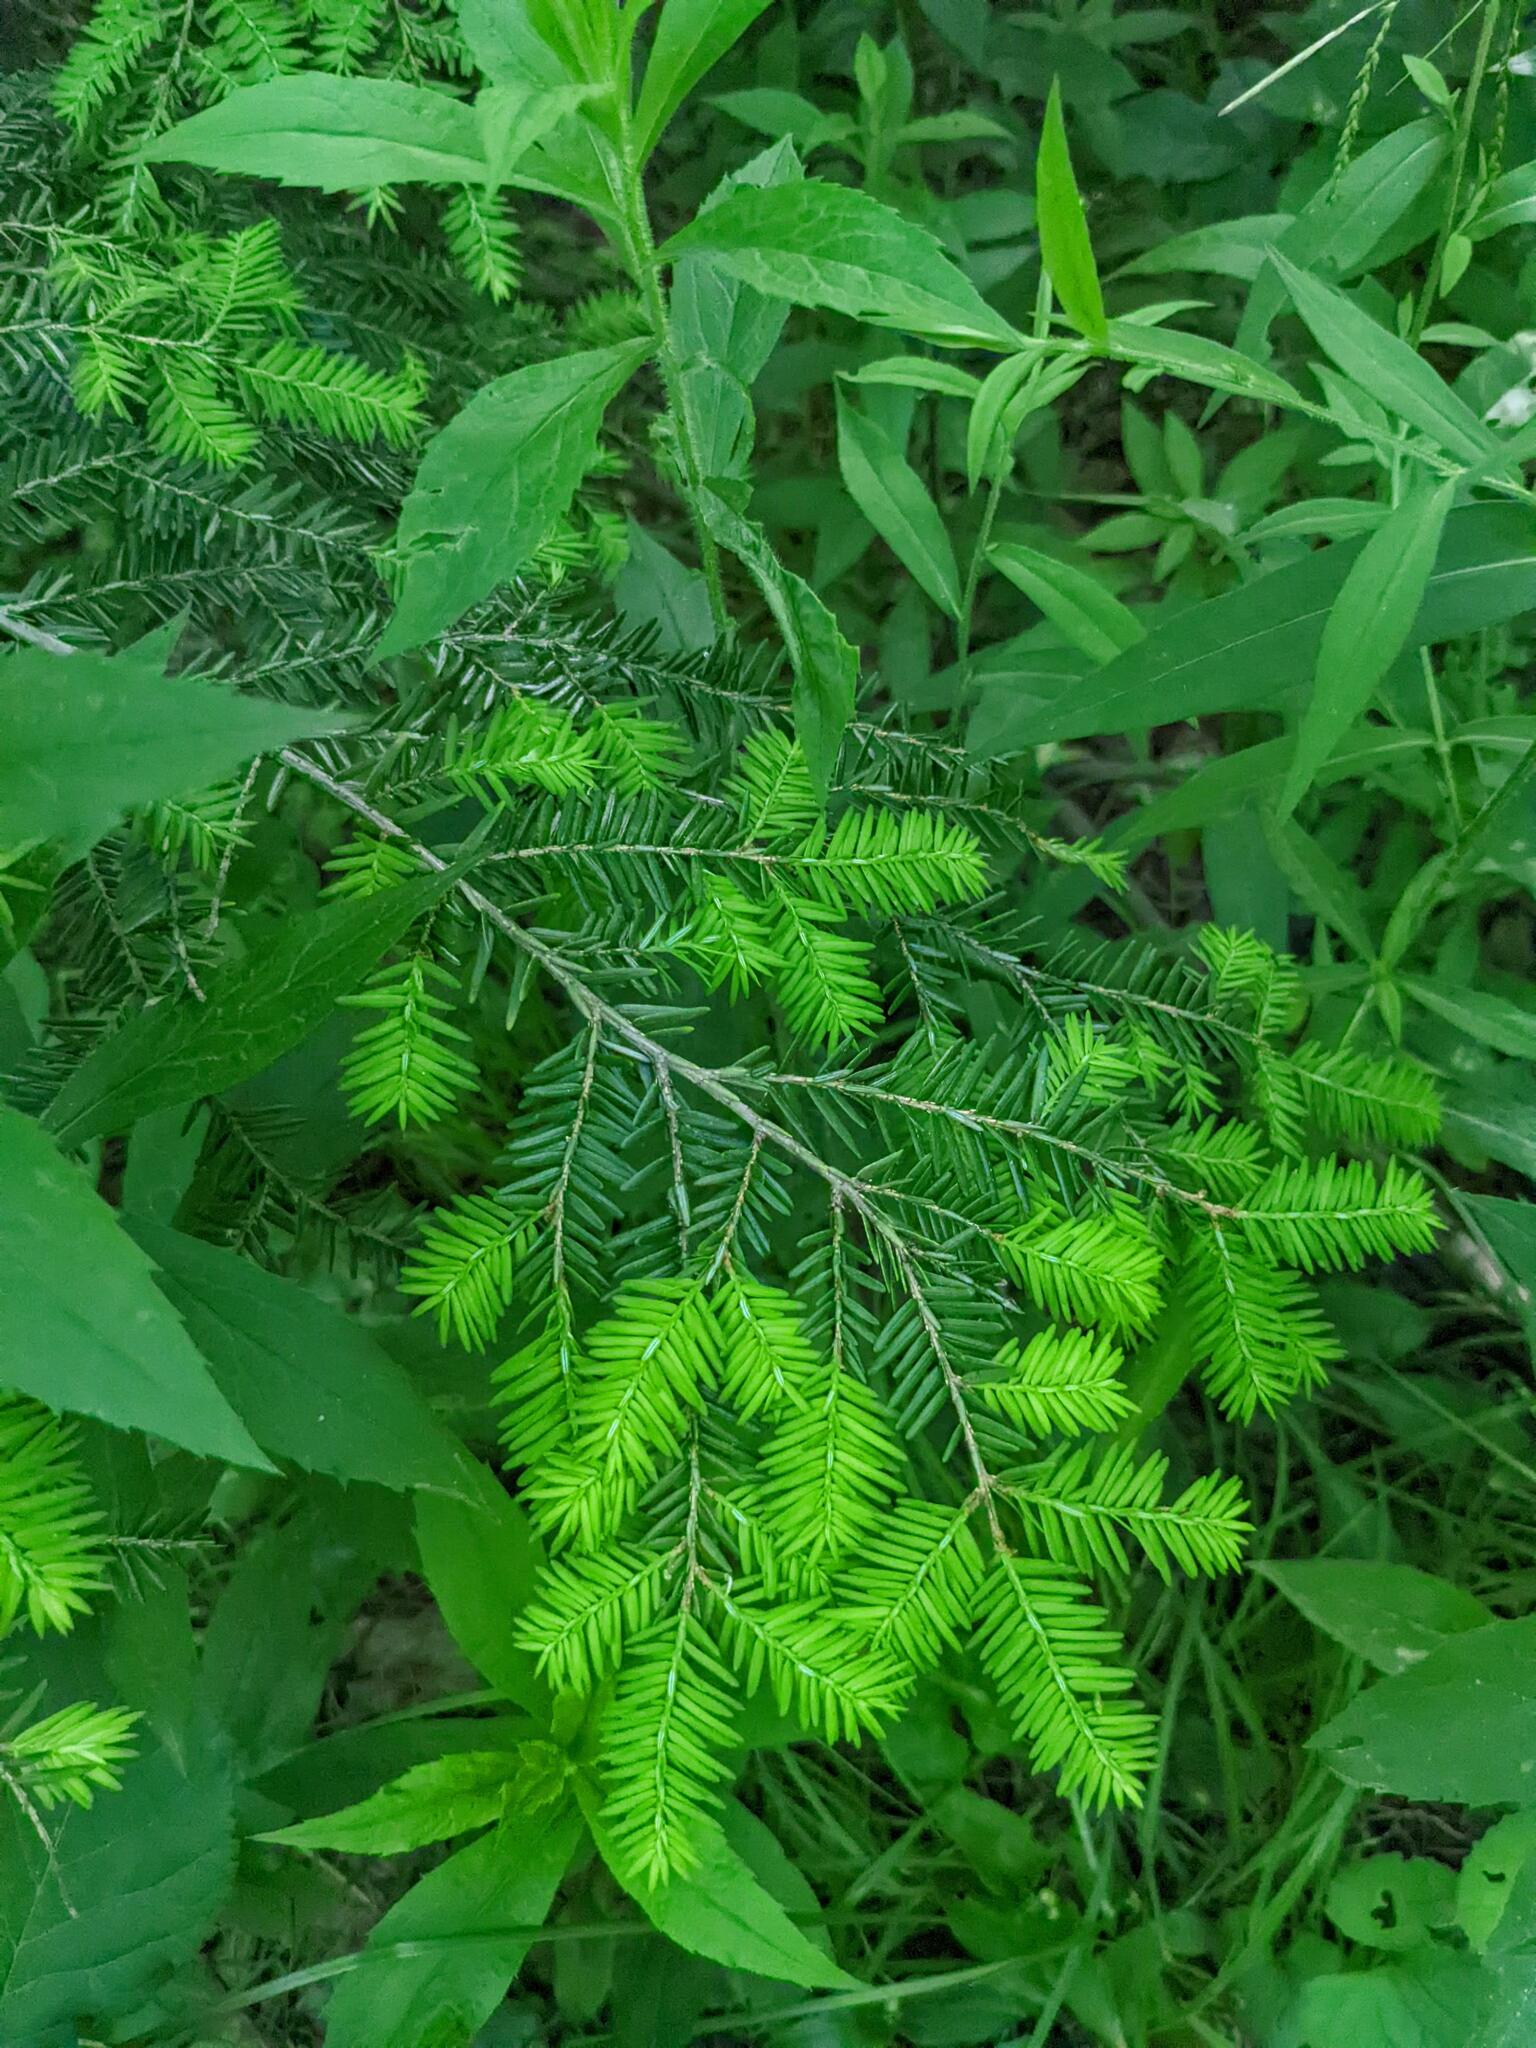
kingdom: Plantae
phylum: Tracheophyta
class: Pinopsida
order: Pinales
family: Pinaceae
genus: Tsuga
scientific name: Tsuga canadensis
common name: Eastern hemlock
